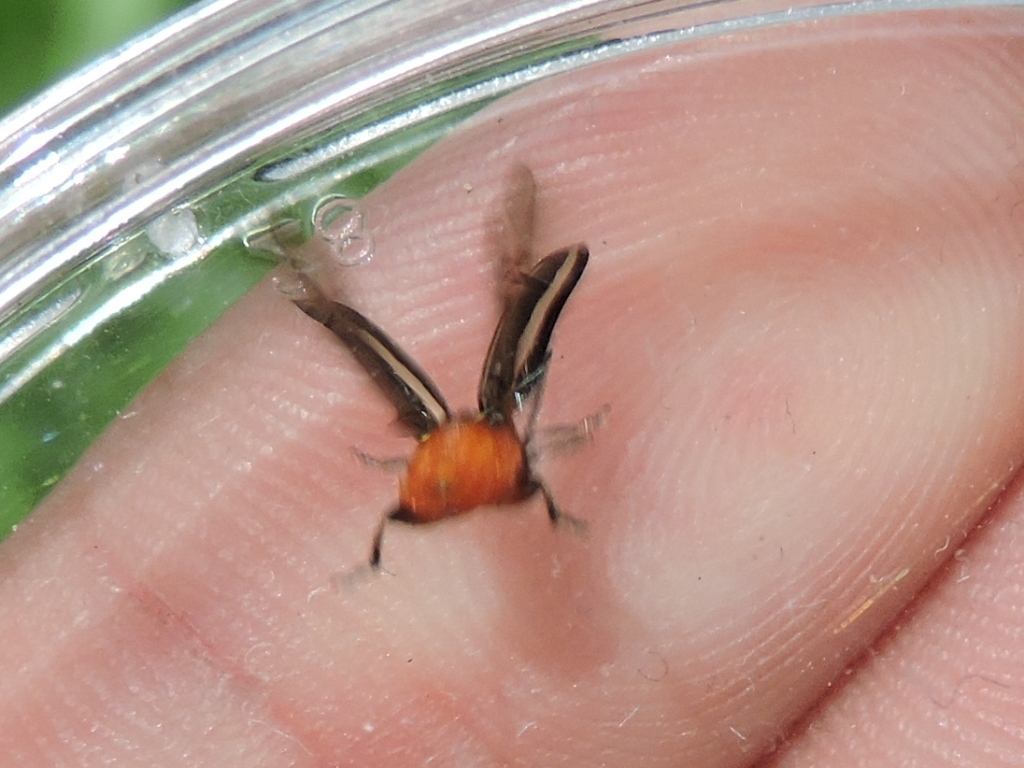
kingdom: Animalia
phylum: Arthropoda
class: Insecta
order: Coleoptera
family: Chrysomelidae
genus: Disonycha
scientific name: Disonycha glabrata
